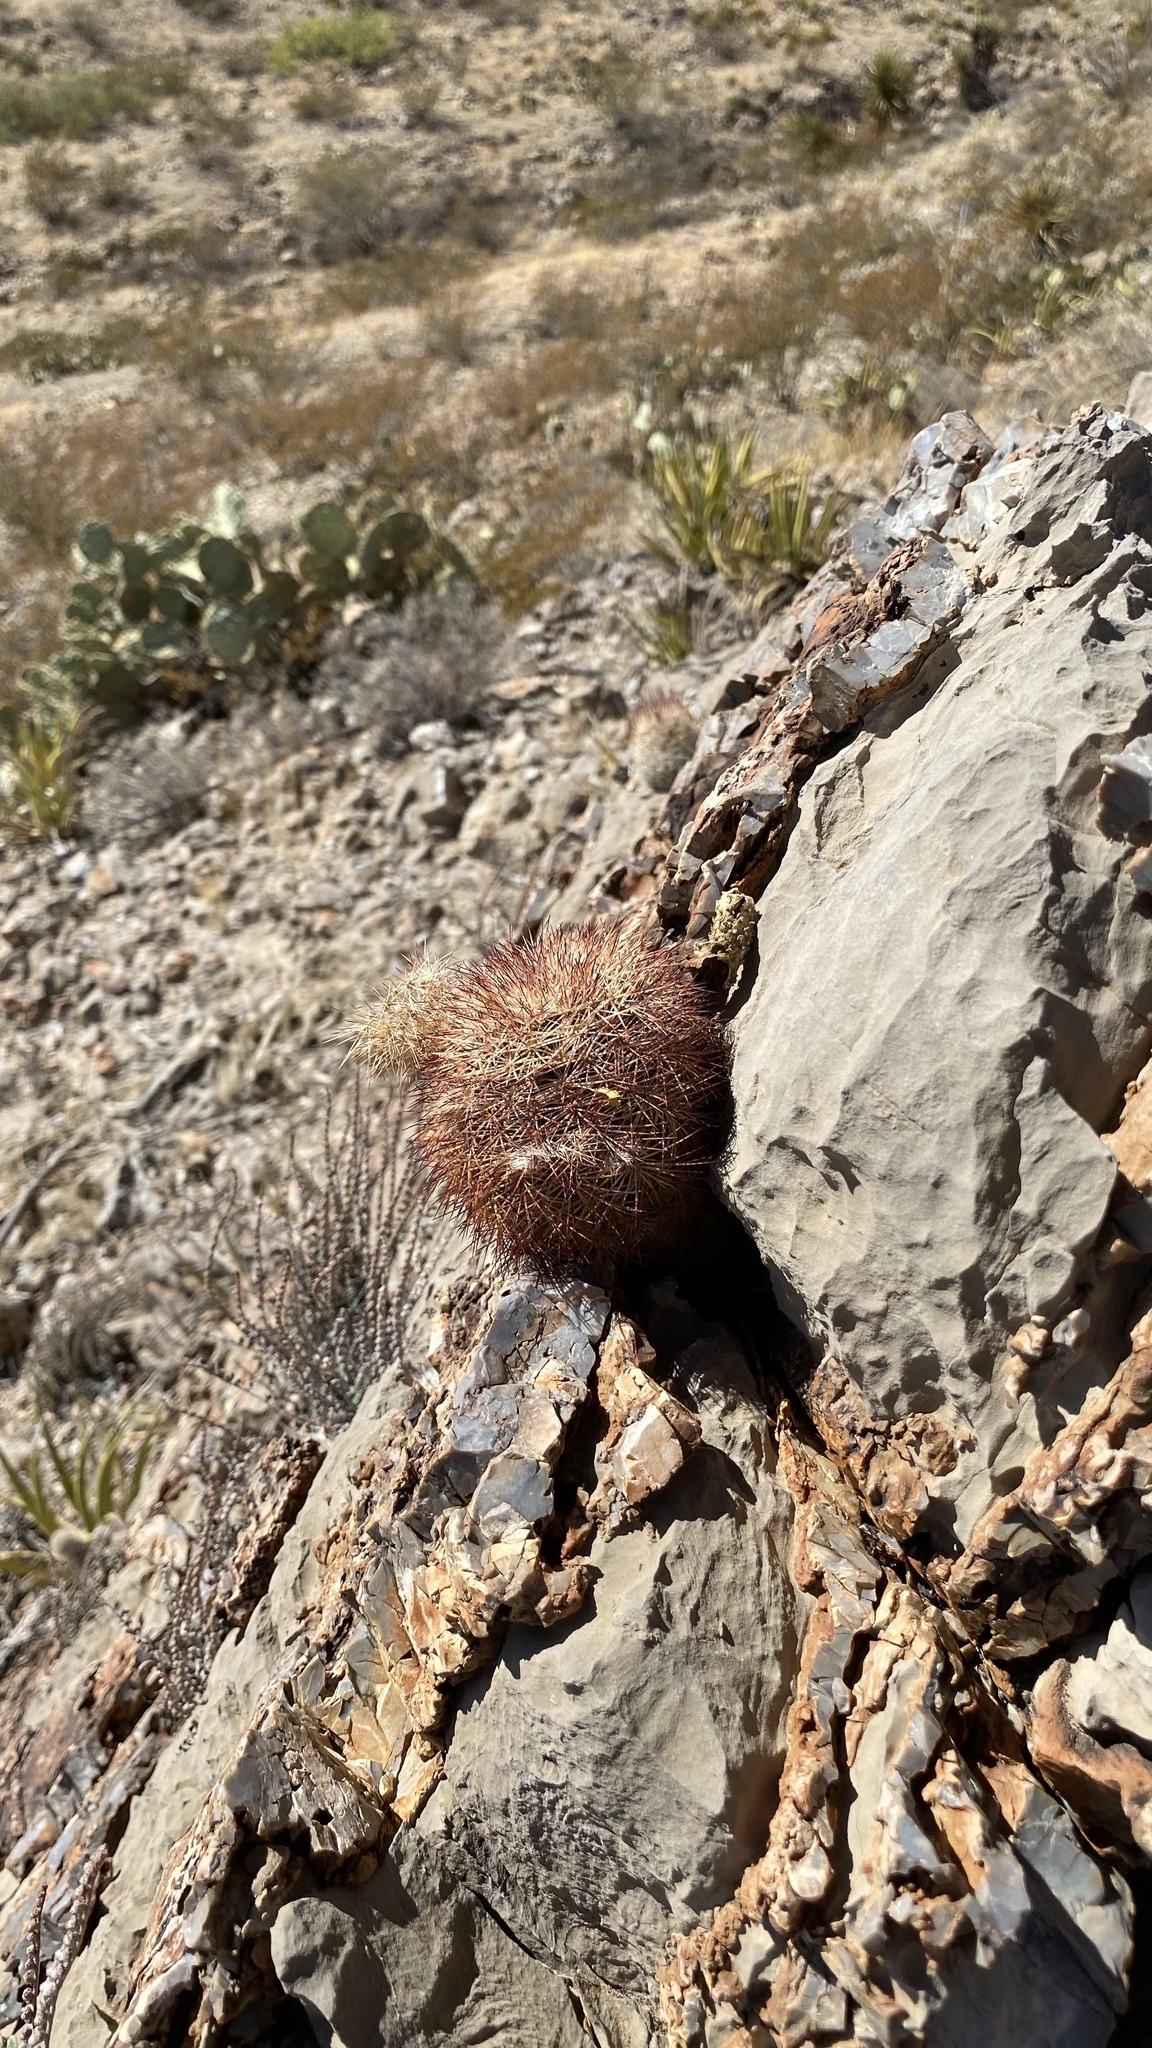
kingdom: Plantae
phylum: Tracheophyta
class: Magnoliopsida
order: Caryophyllales
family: Cactaceae
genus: Echinocereus
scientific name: Echinocereus dasyacanthus
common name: Spiny hedgehog cactus
